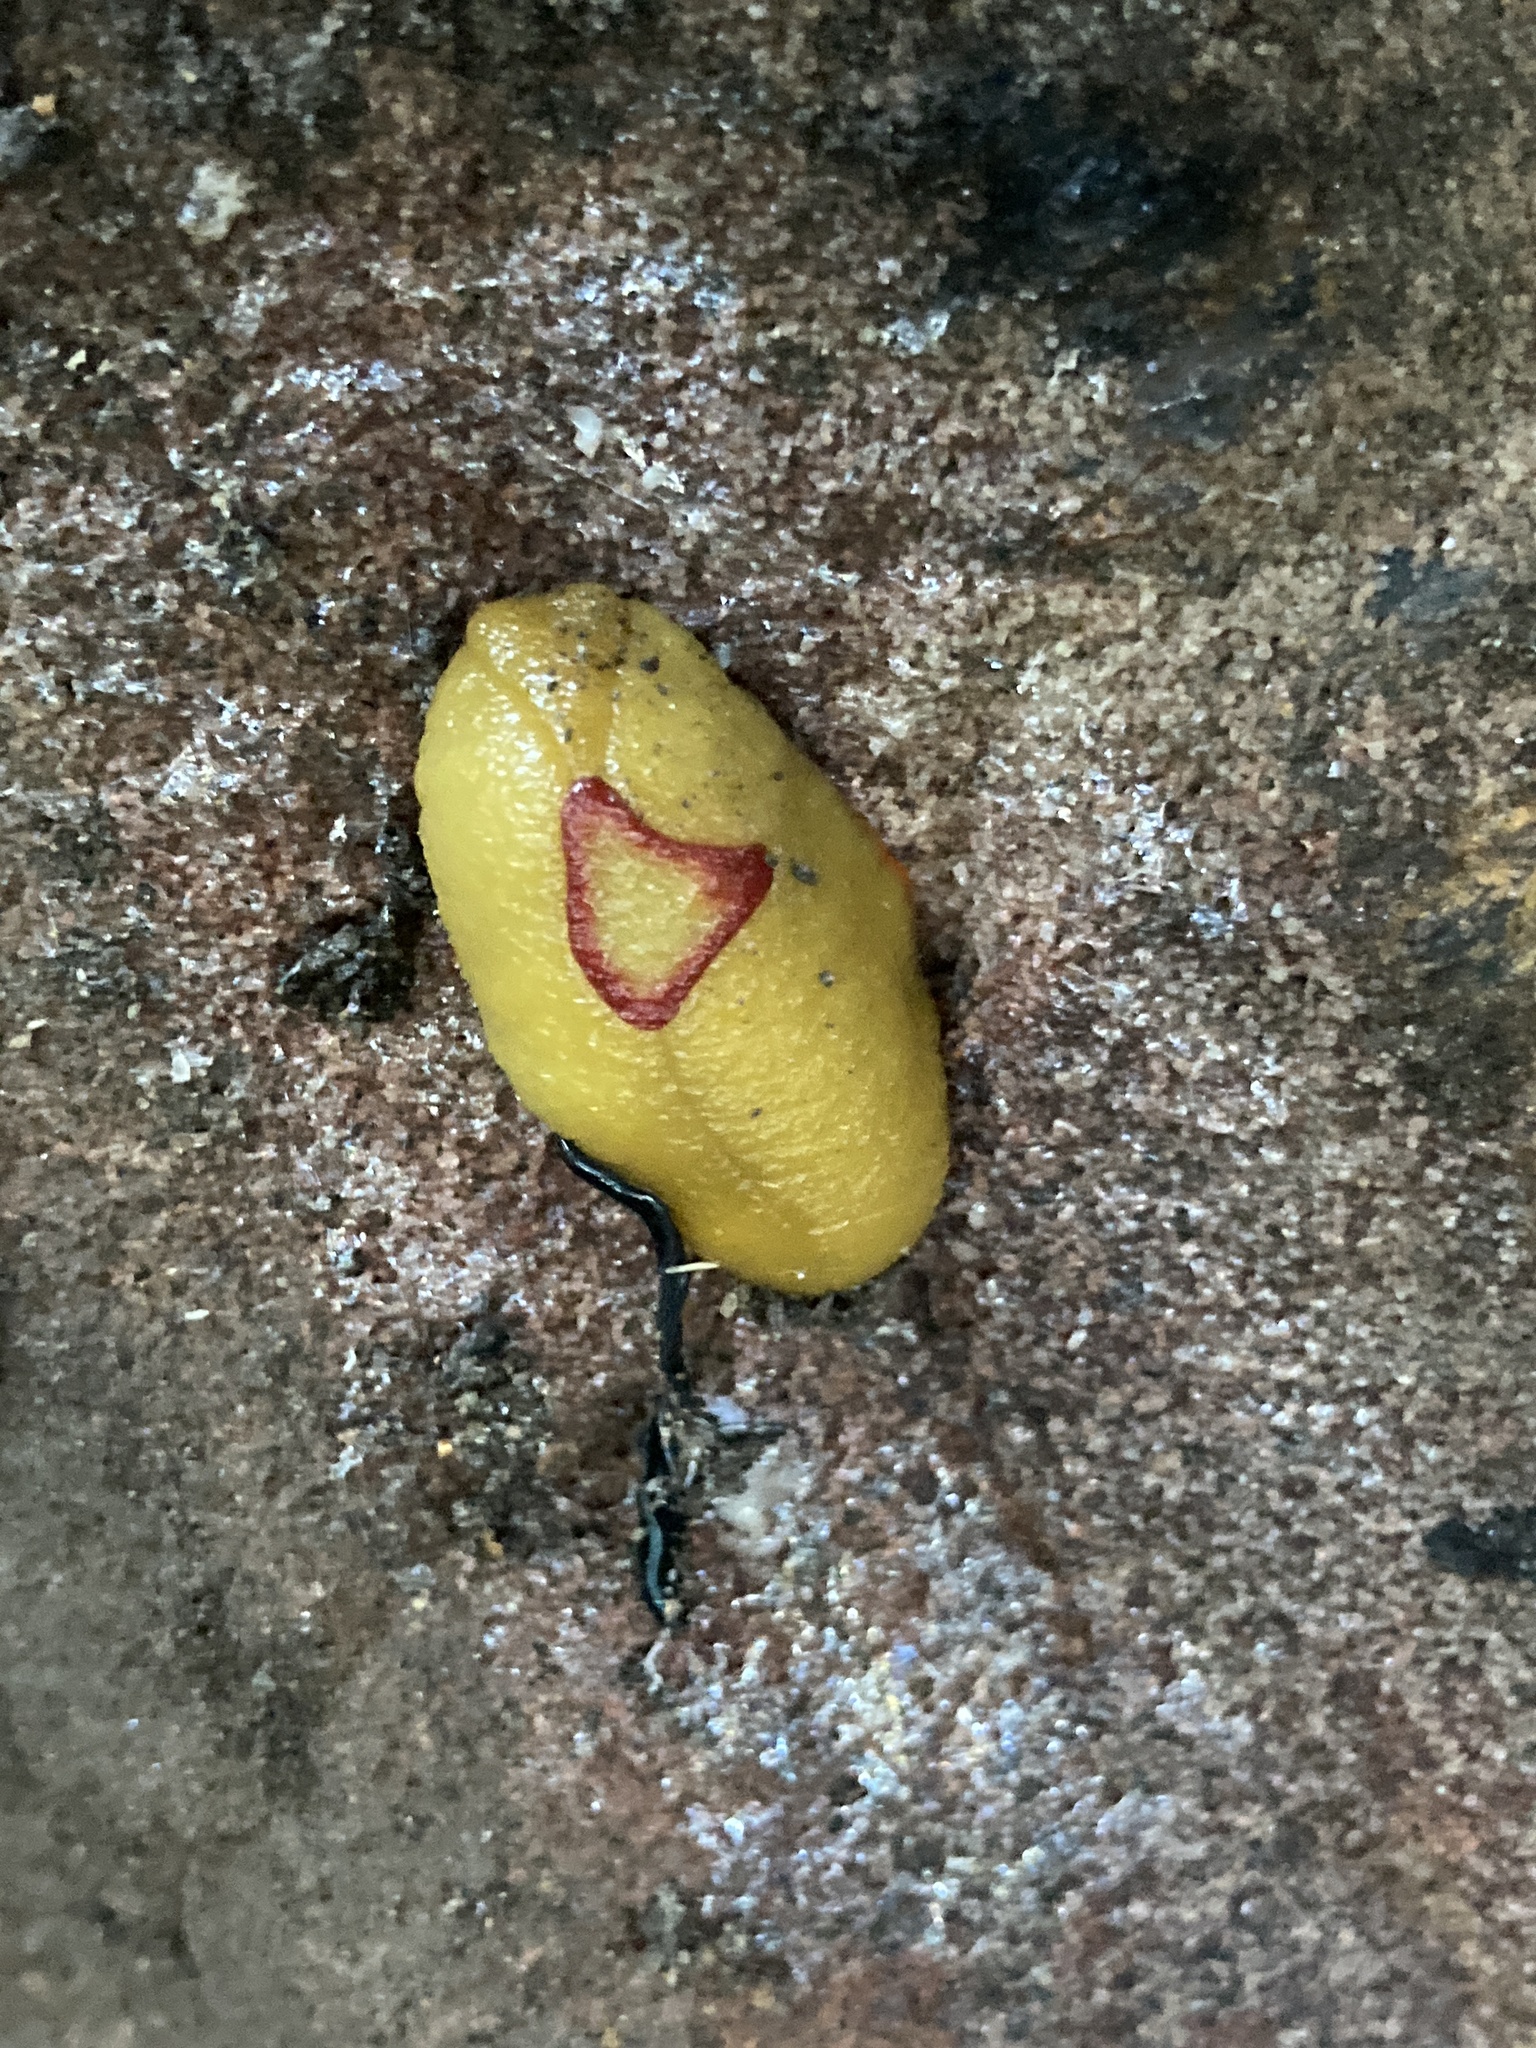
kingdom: Animalia
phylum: Mollusca
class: Gastropoda
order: Stylommatophora
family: Athoracophoridae
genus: Triboniophorus
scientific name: Triboniophorus graeffei
